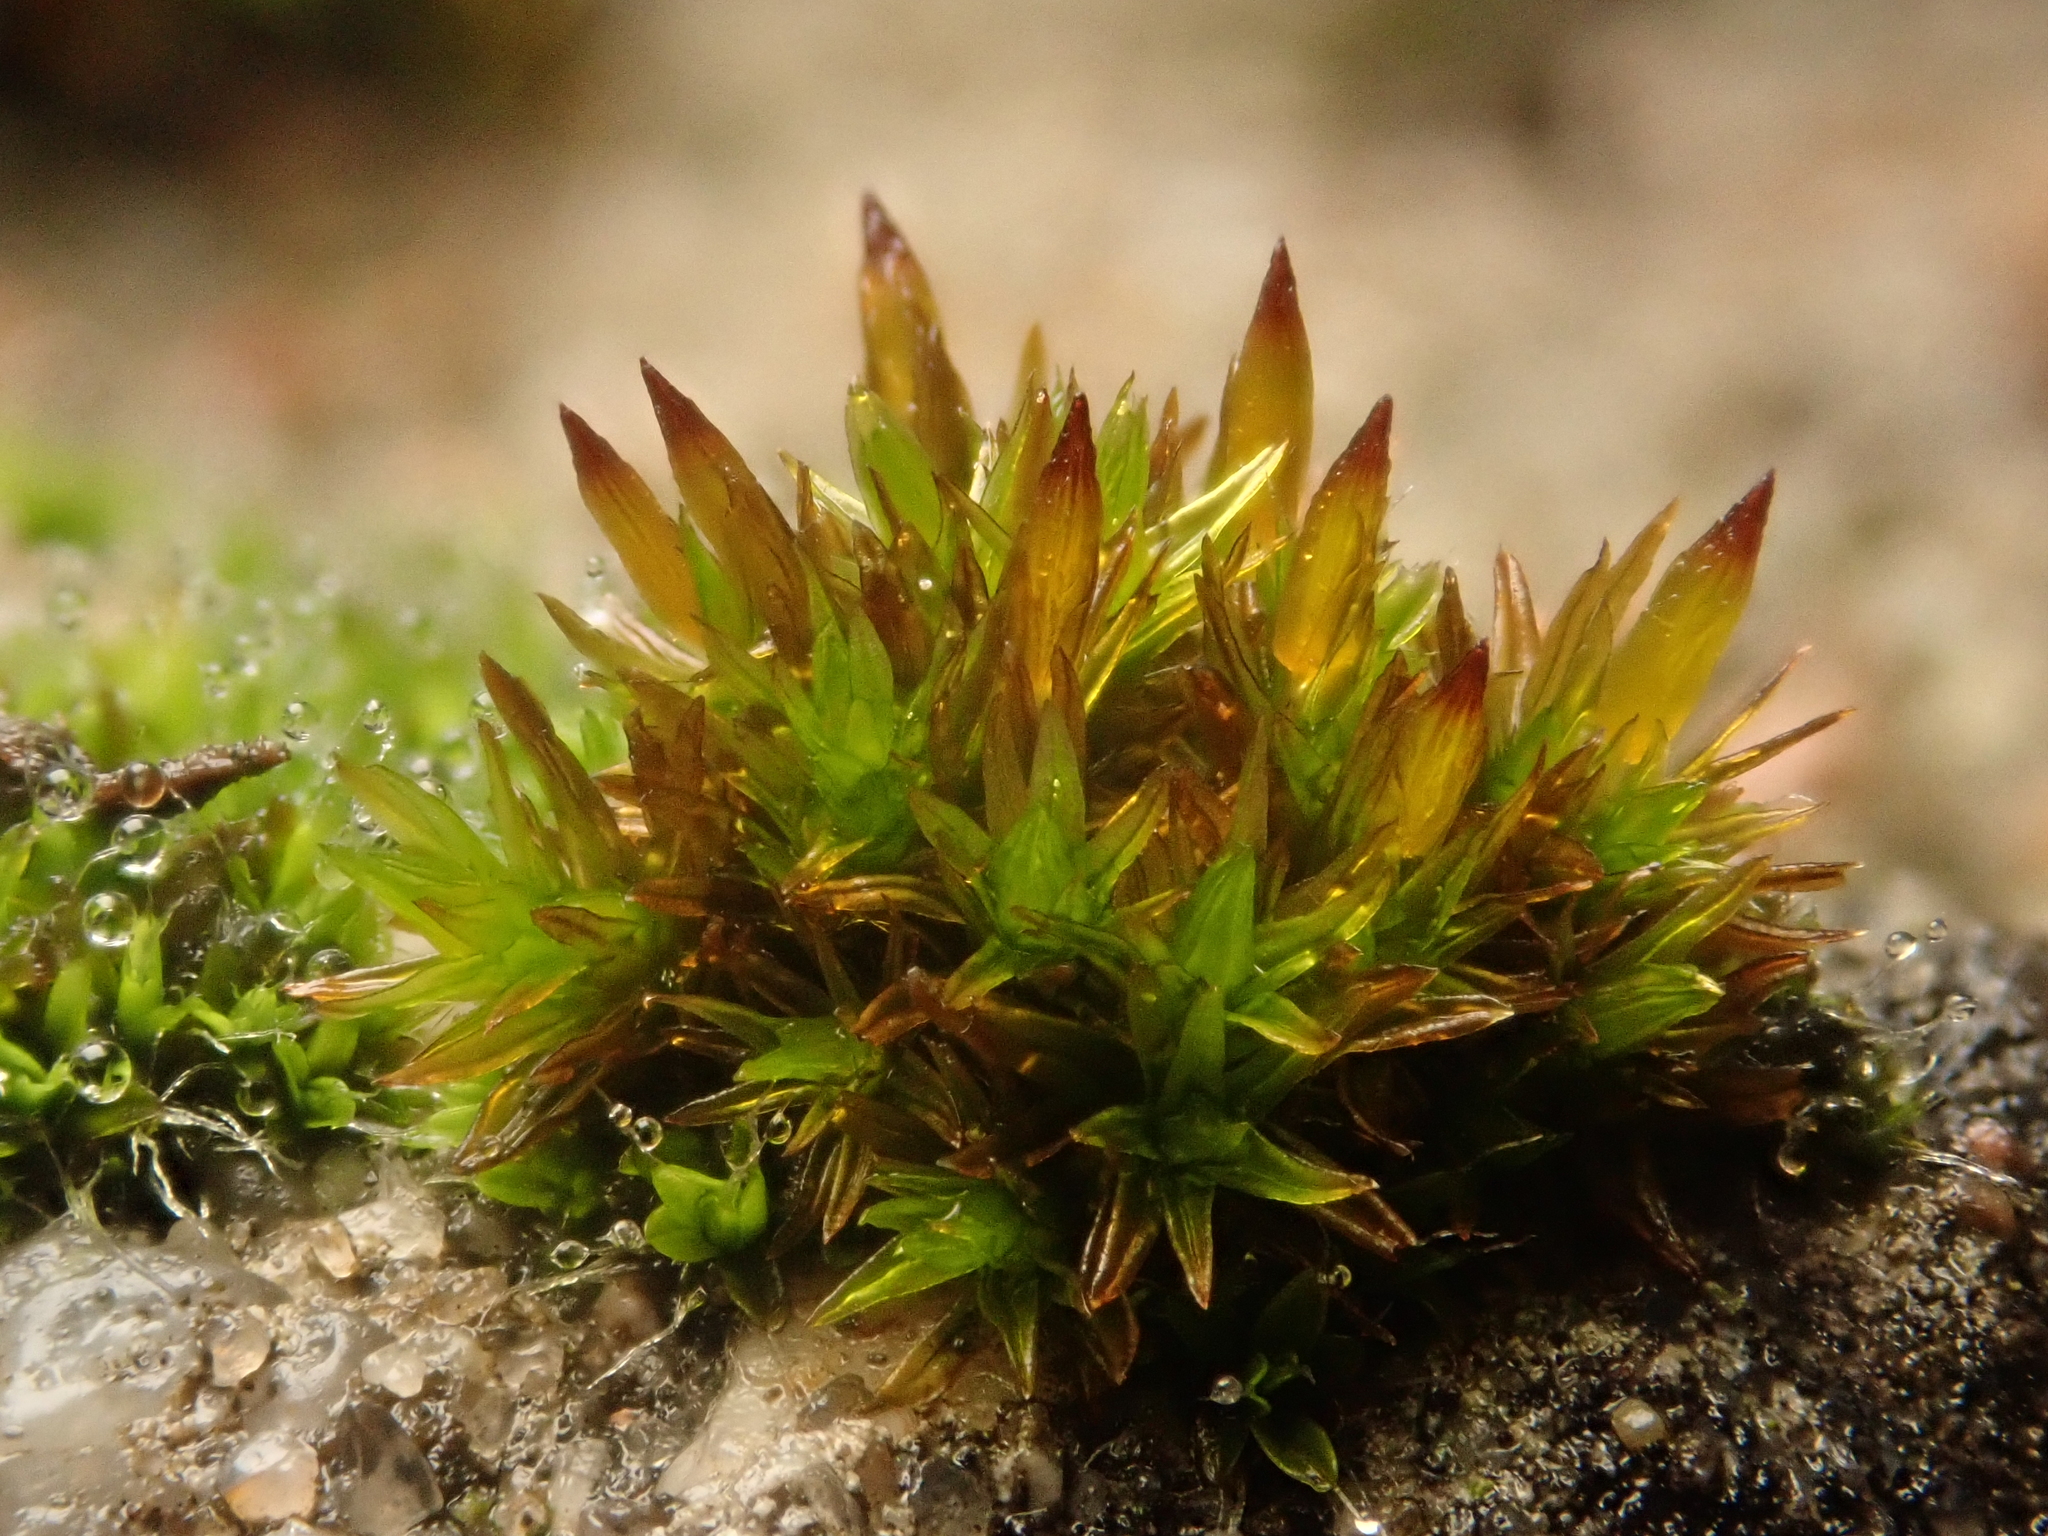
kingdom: Plantae
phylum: Bryophyta
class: Bryopsida
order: Orthotrichales
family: Orthotrichaceae
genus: Orthotrichum
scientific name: Orthotrichum anomalum
